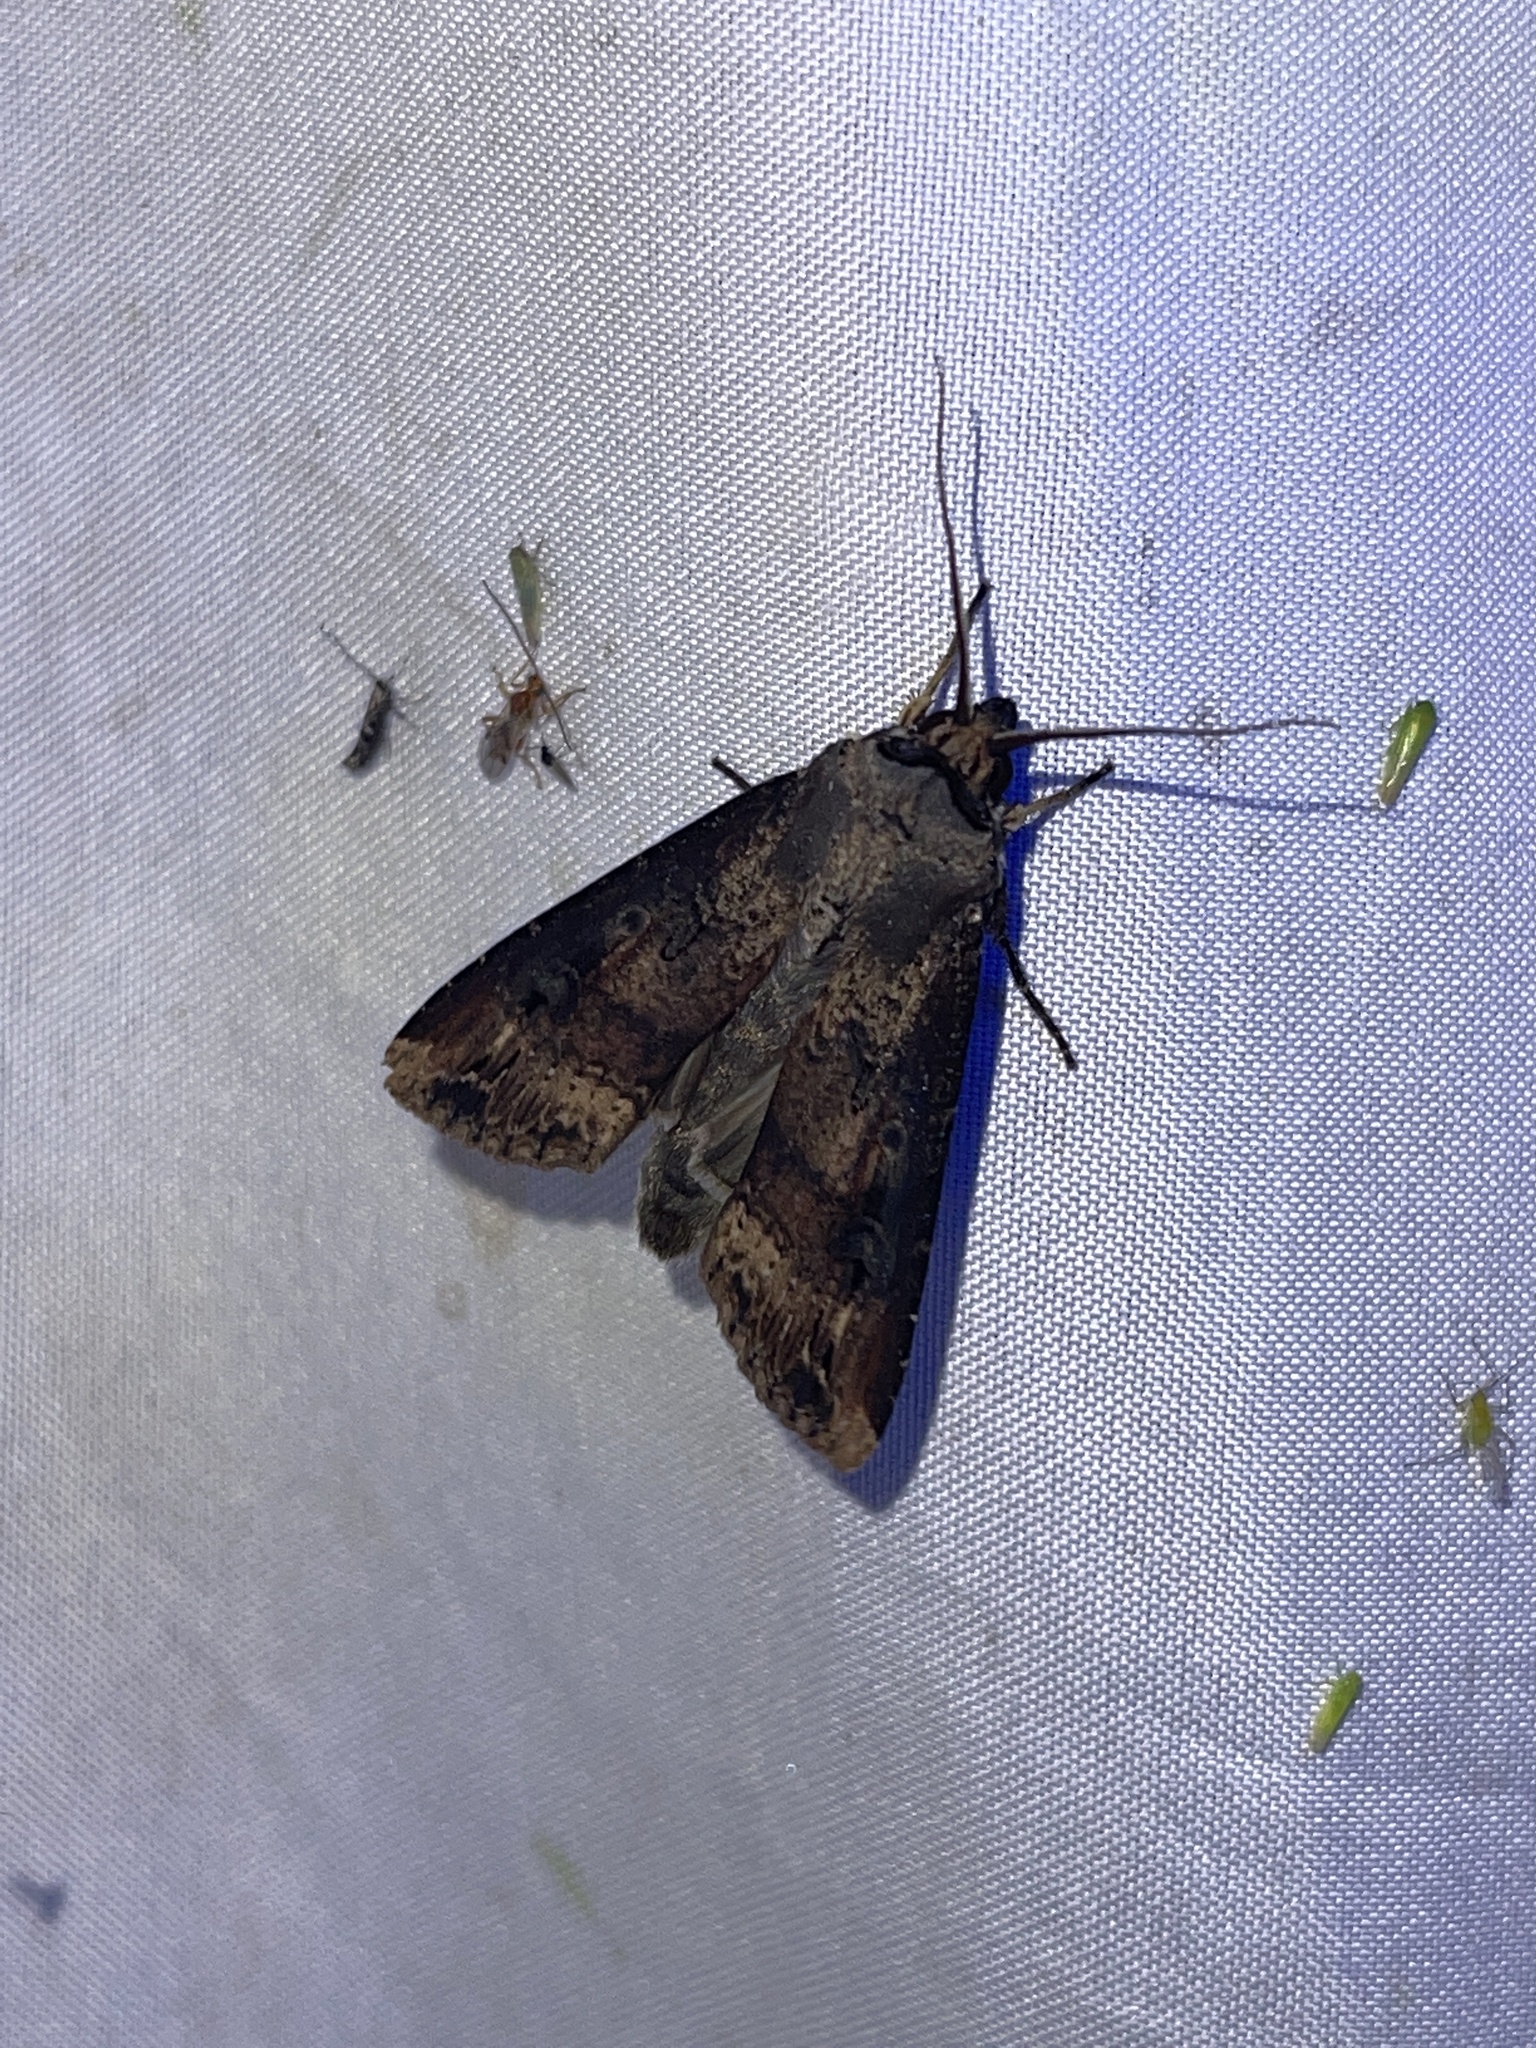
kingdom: Animalia
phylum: Arthropoda
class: Insecta
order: Lepidoptera
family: Noctuidae
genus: Agrotis
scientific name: Agrotis ipsilon
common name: Dark sword-grass
